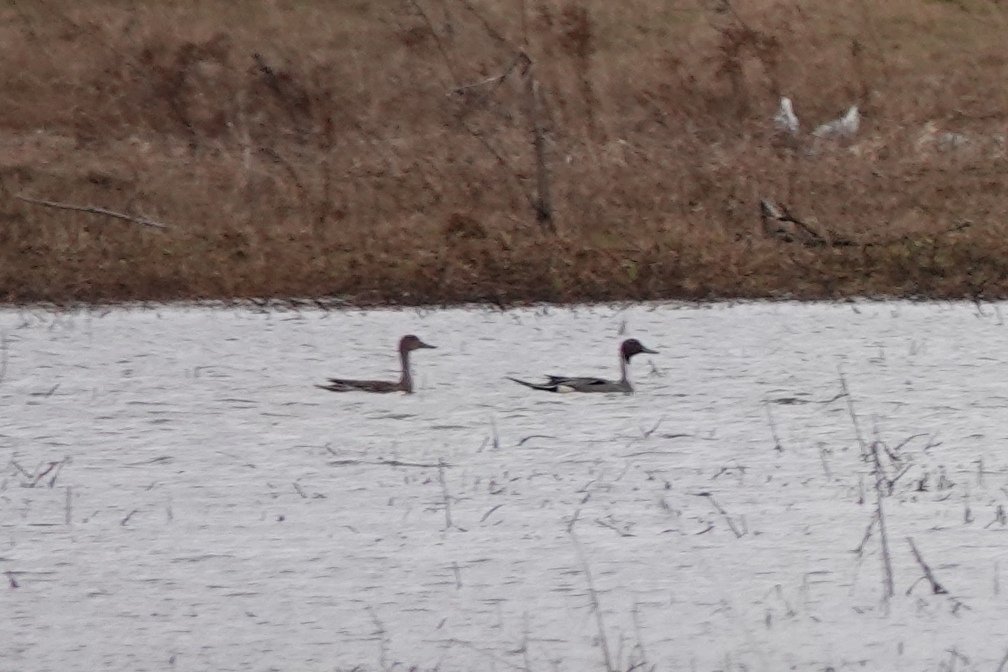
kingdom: Animalia
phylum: Chordata
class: Aves
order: Anseriformes
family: Anatidae
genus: Anas
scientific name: Anas acuta
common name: Northern pintail
